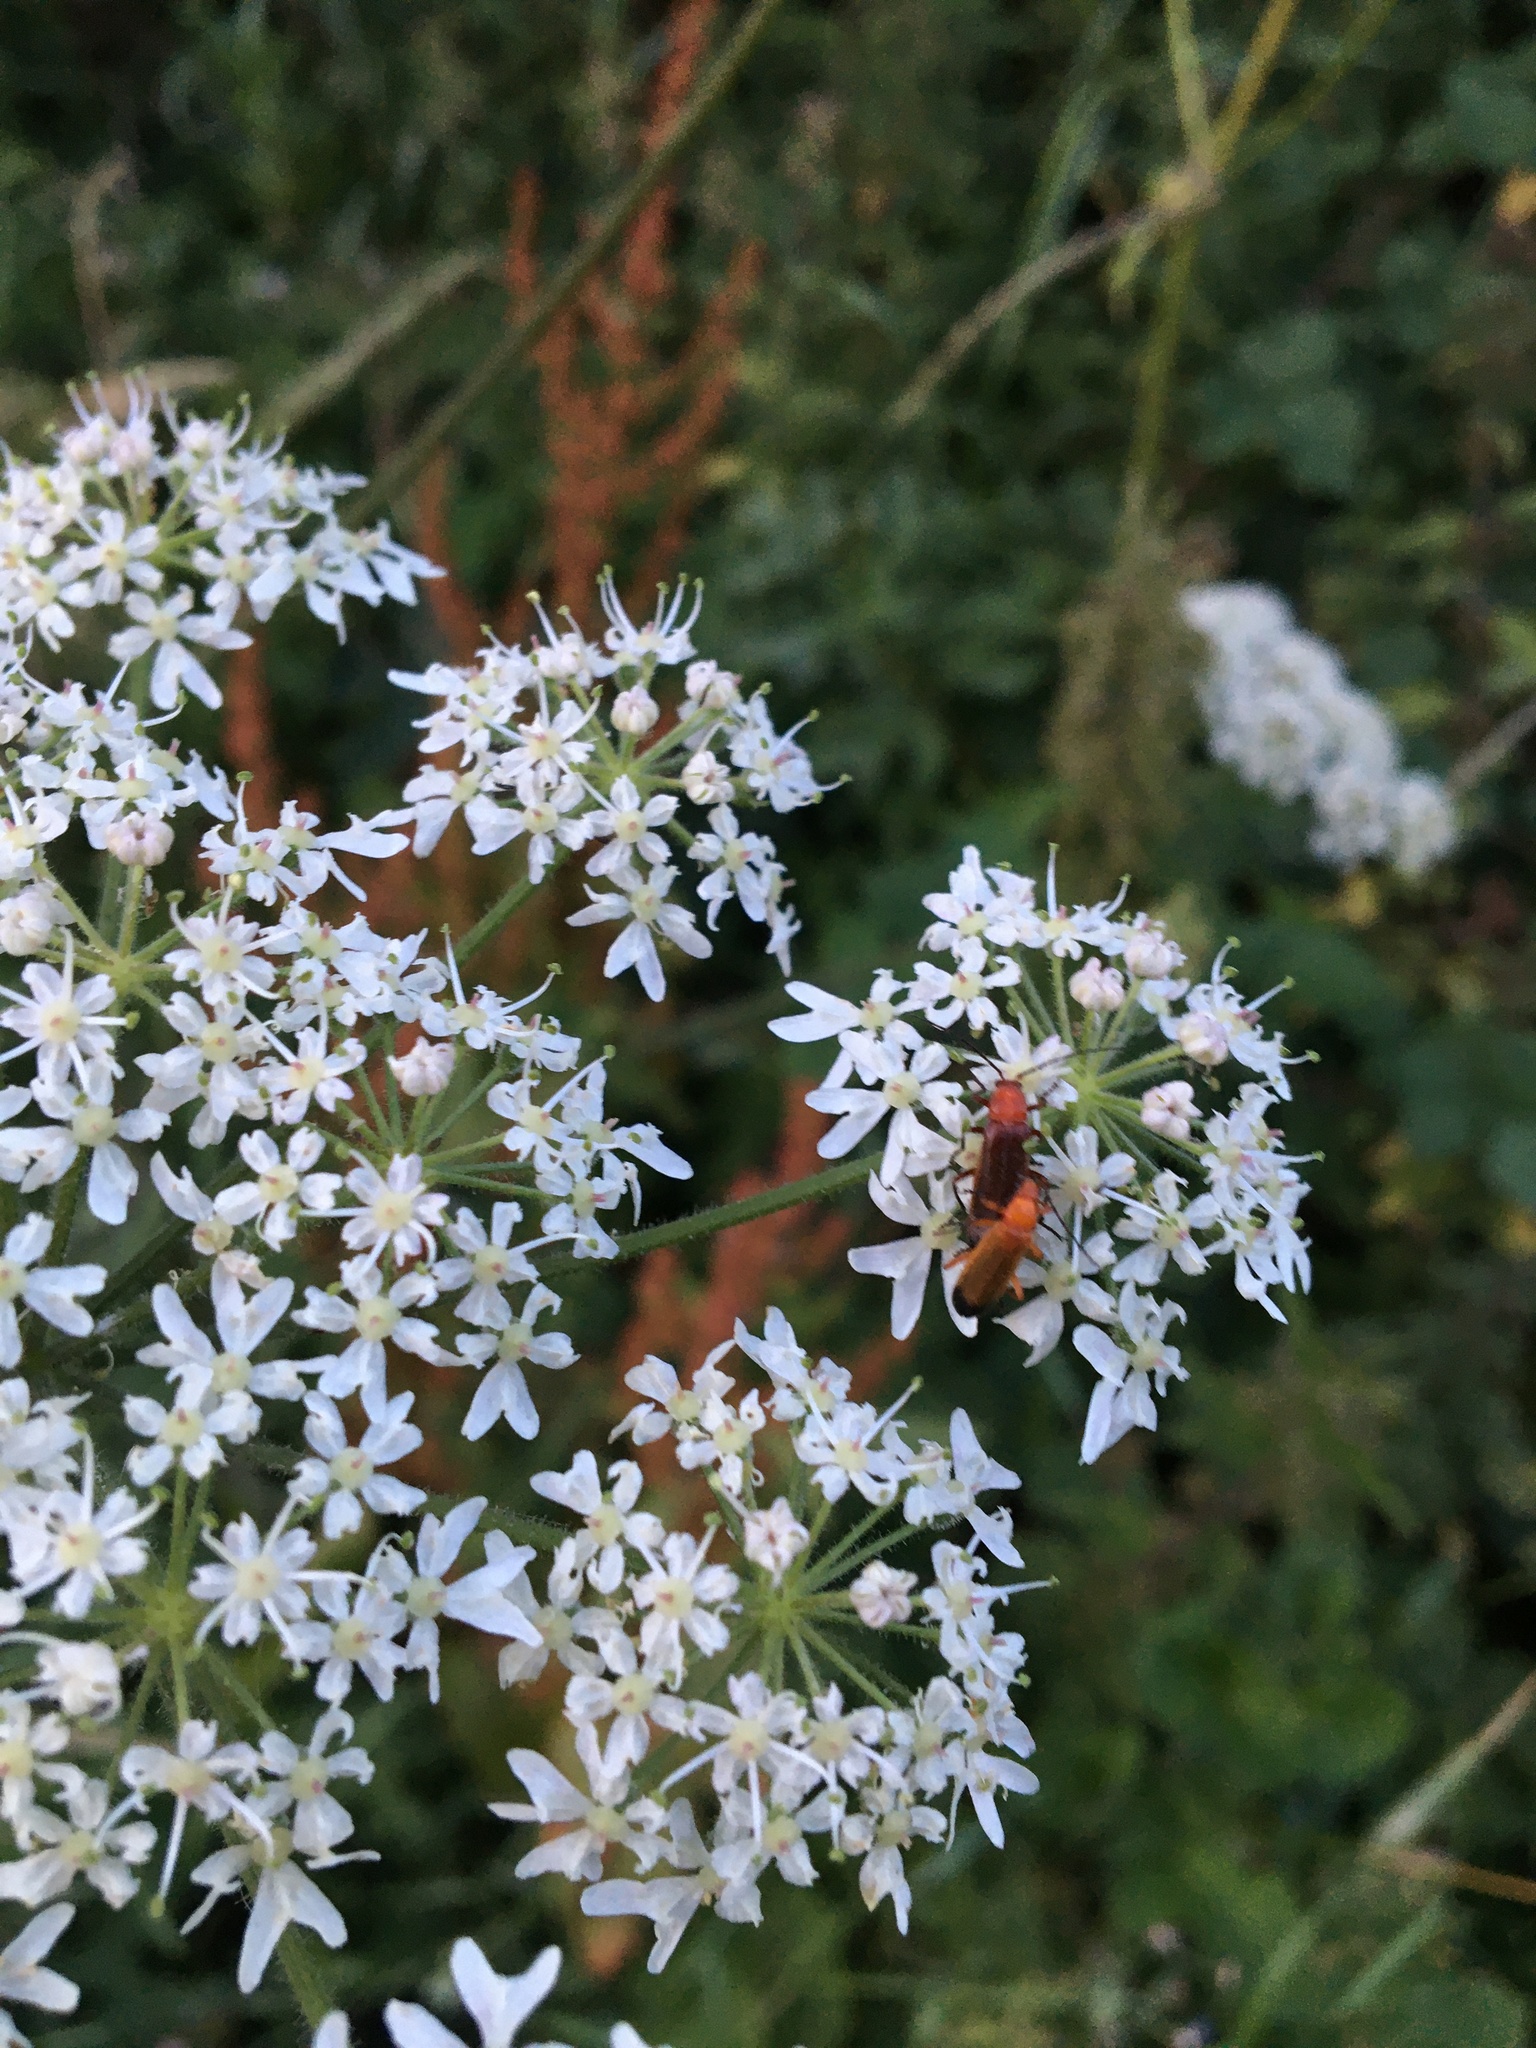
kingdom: Animalia
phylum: Arthropoda
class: Insecta
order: Coleoptera
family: Cantharidae
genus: Rhagonycha
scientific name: Rhagonycha fulva
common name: Common red soldier beetle
